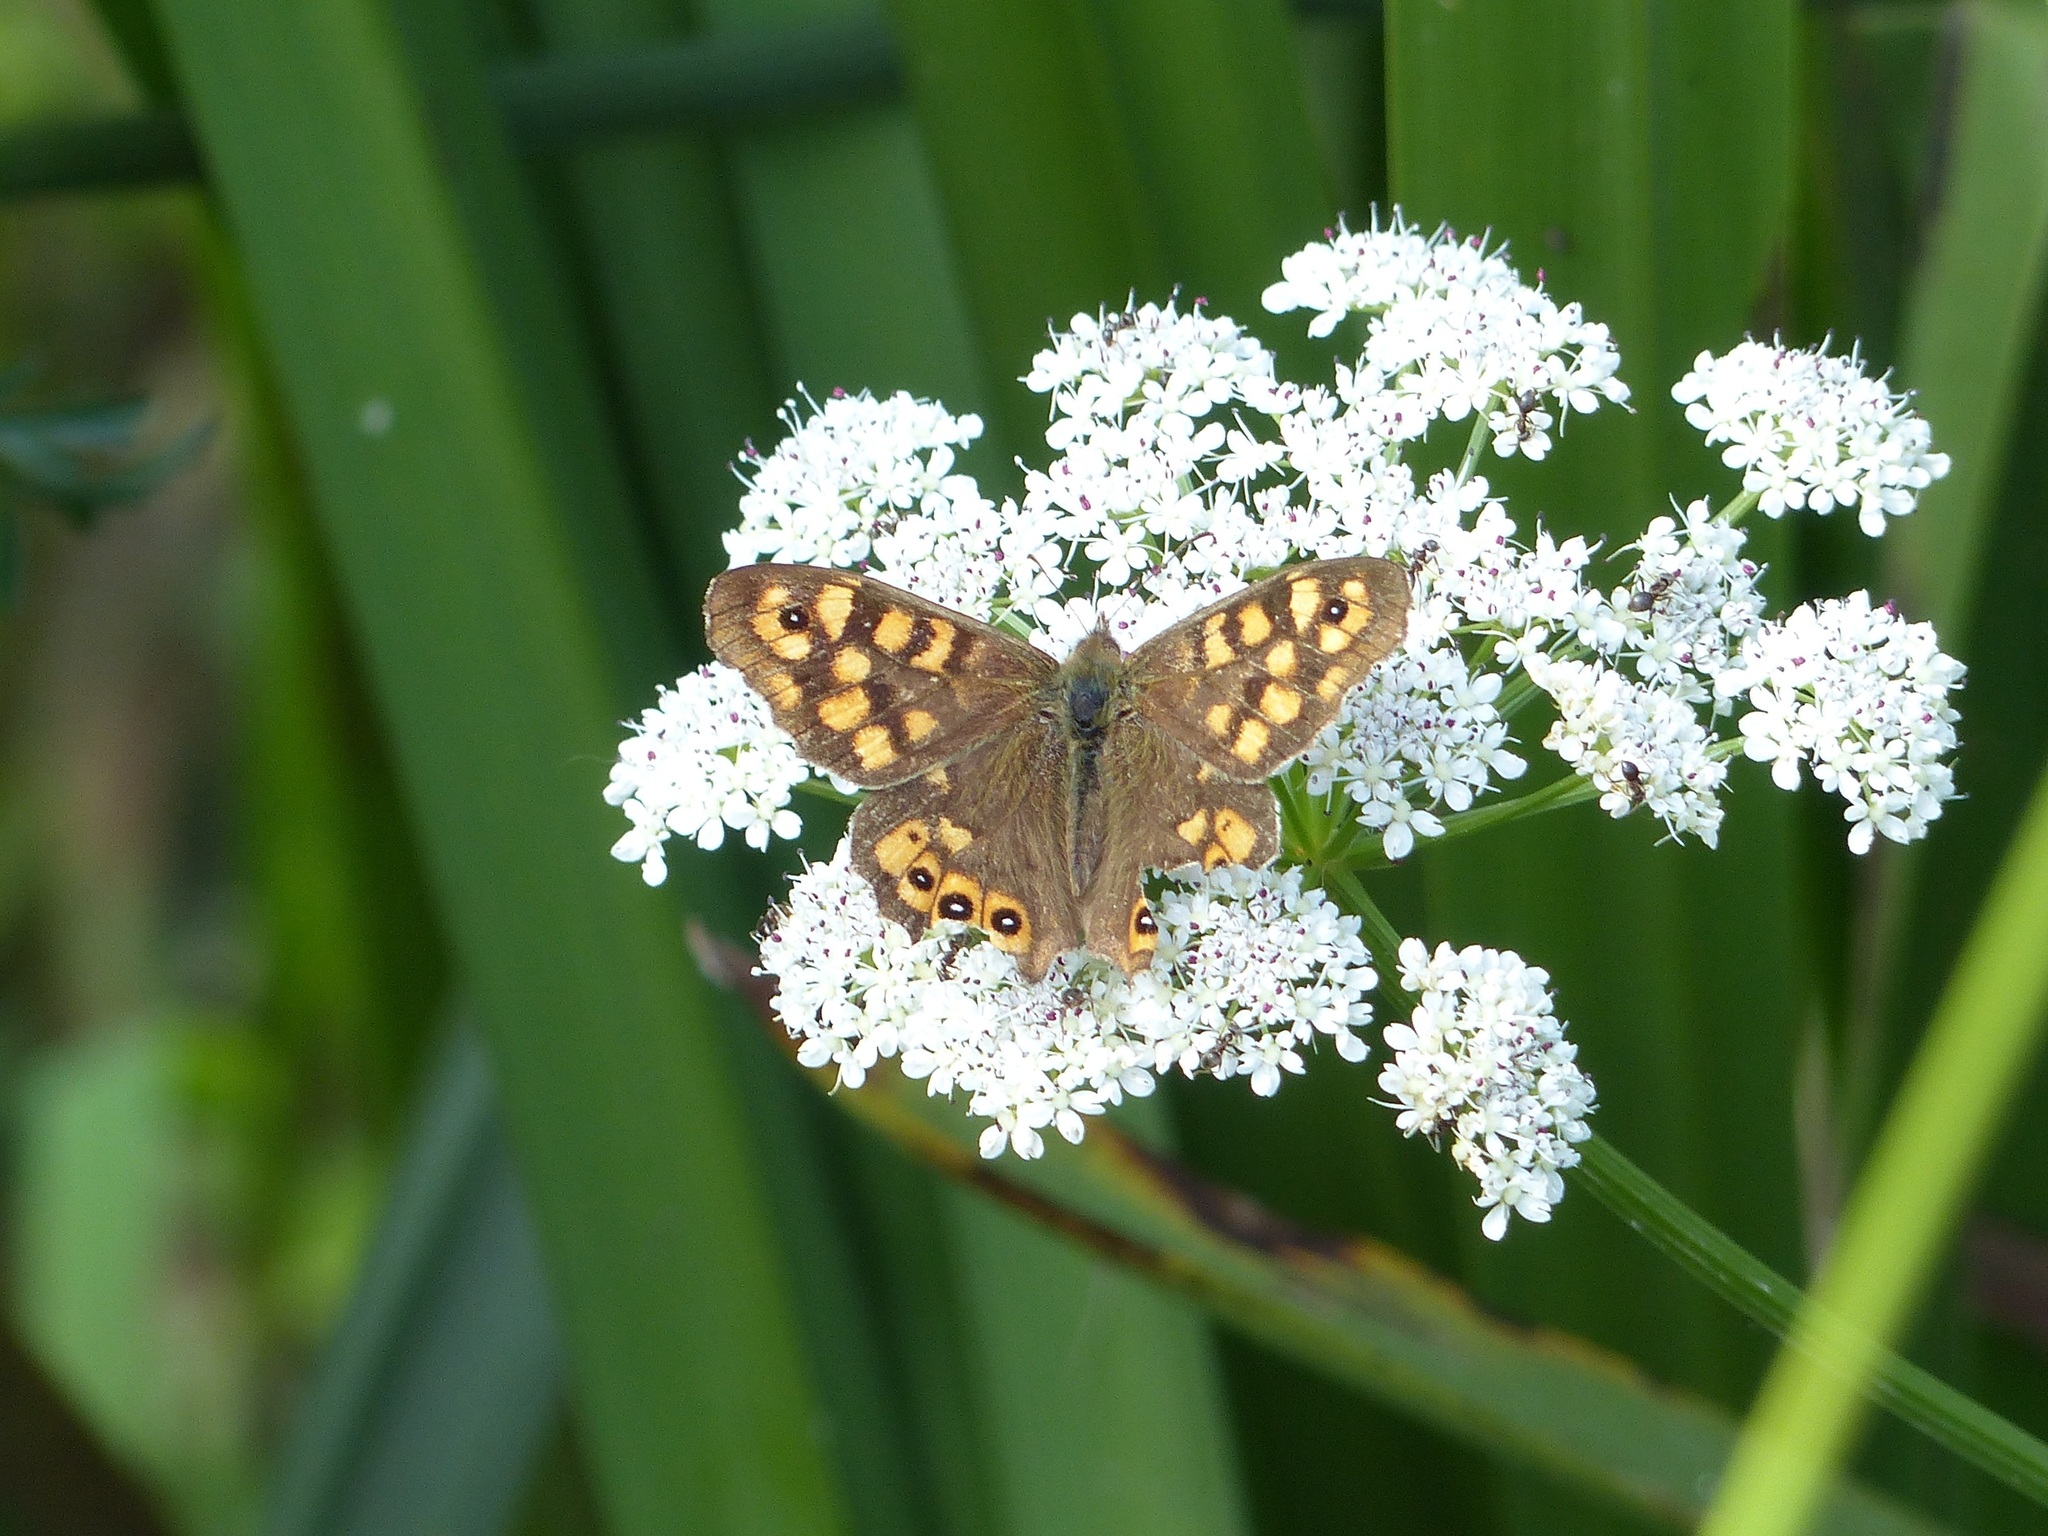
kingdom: Animalia
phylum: Arthropoda
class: Insecta
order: Lepidoptera
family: Nymphalidae
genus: Pararge
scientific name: Pararge aegeria
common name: Speckled wood
